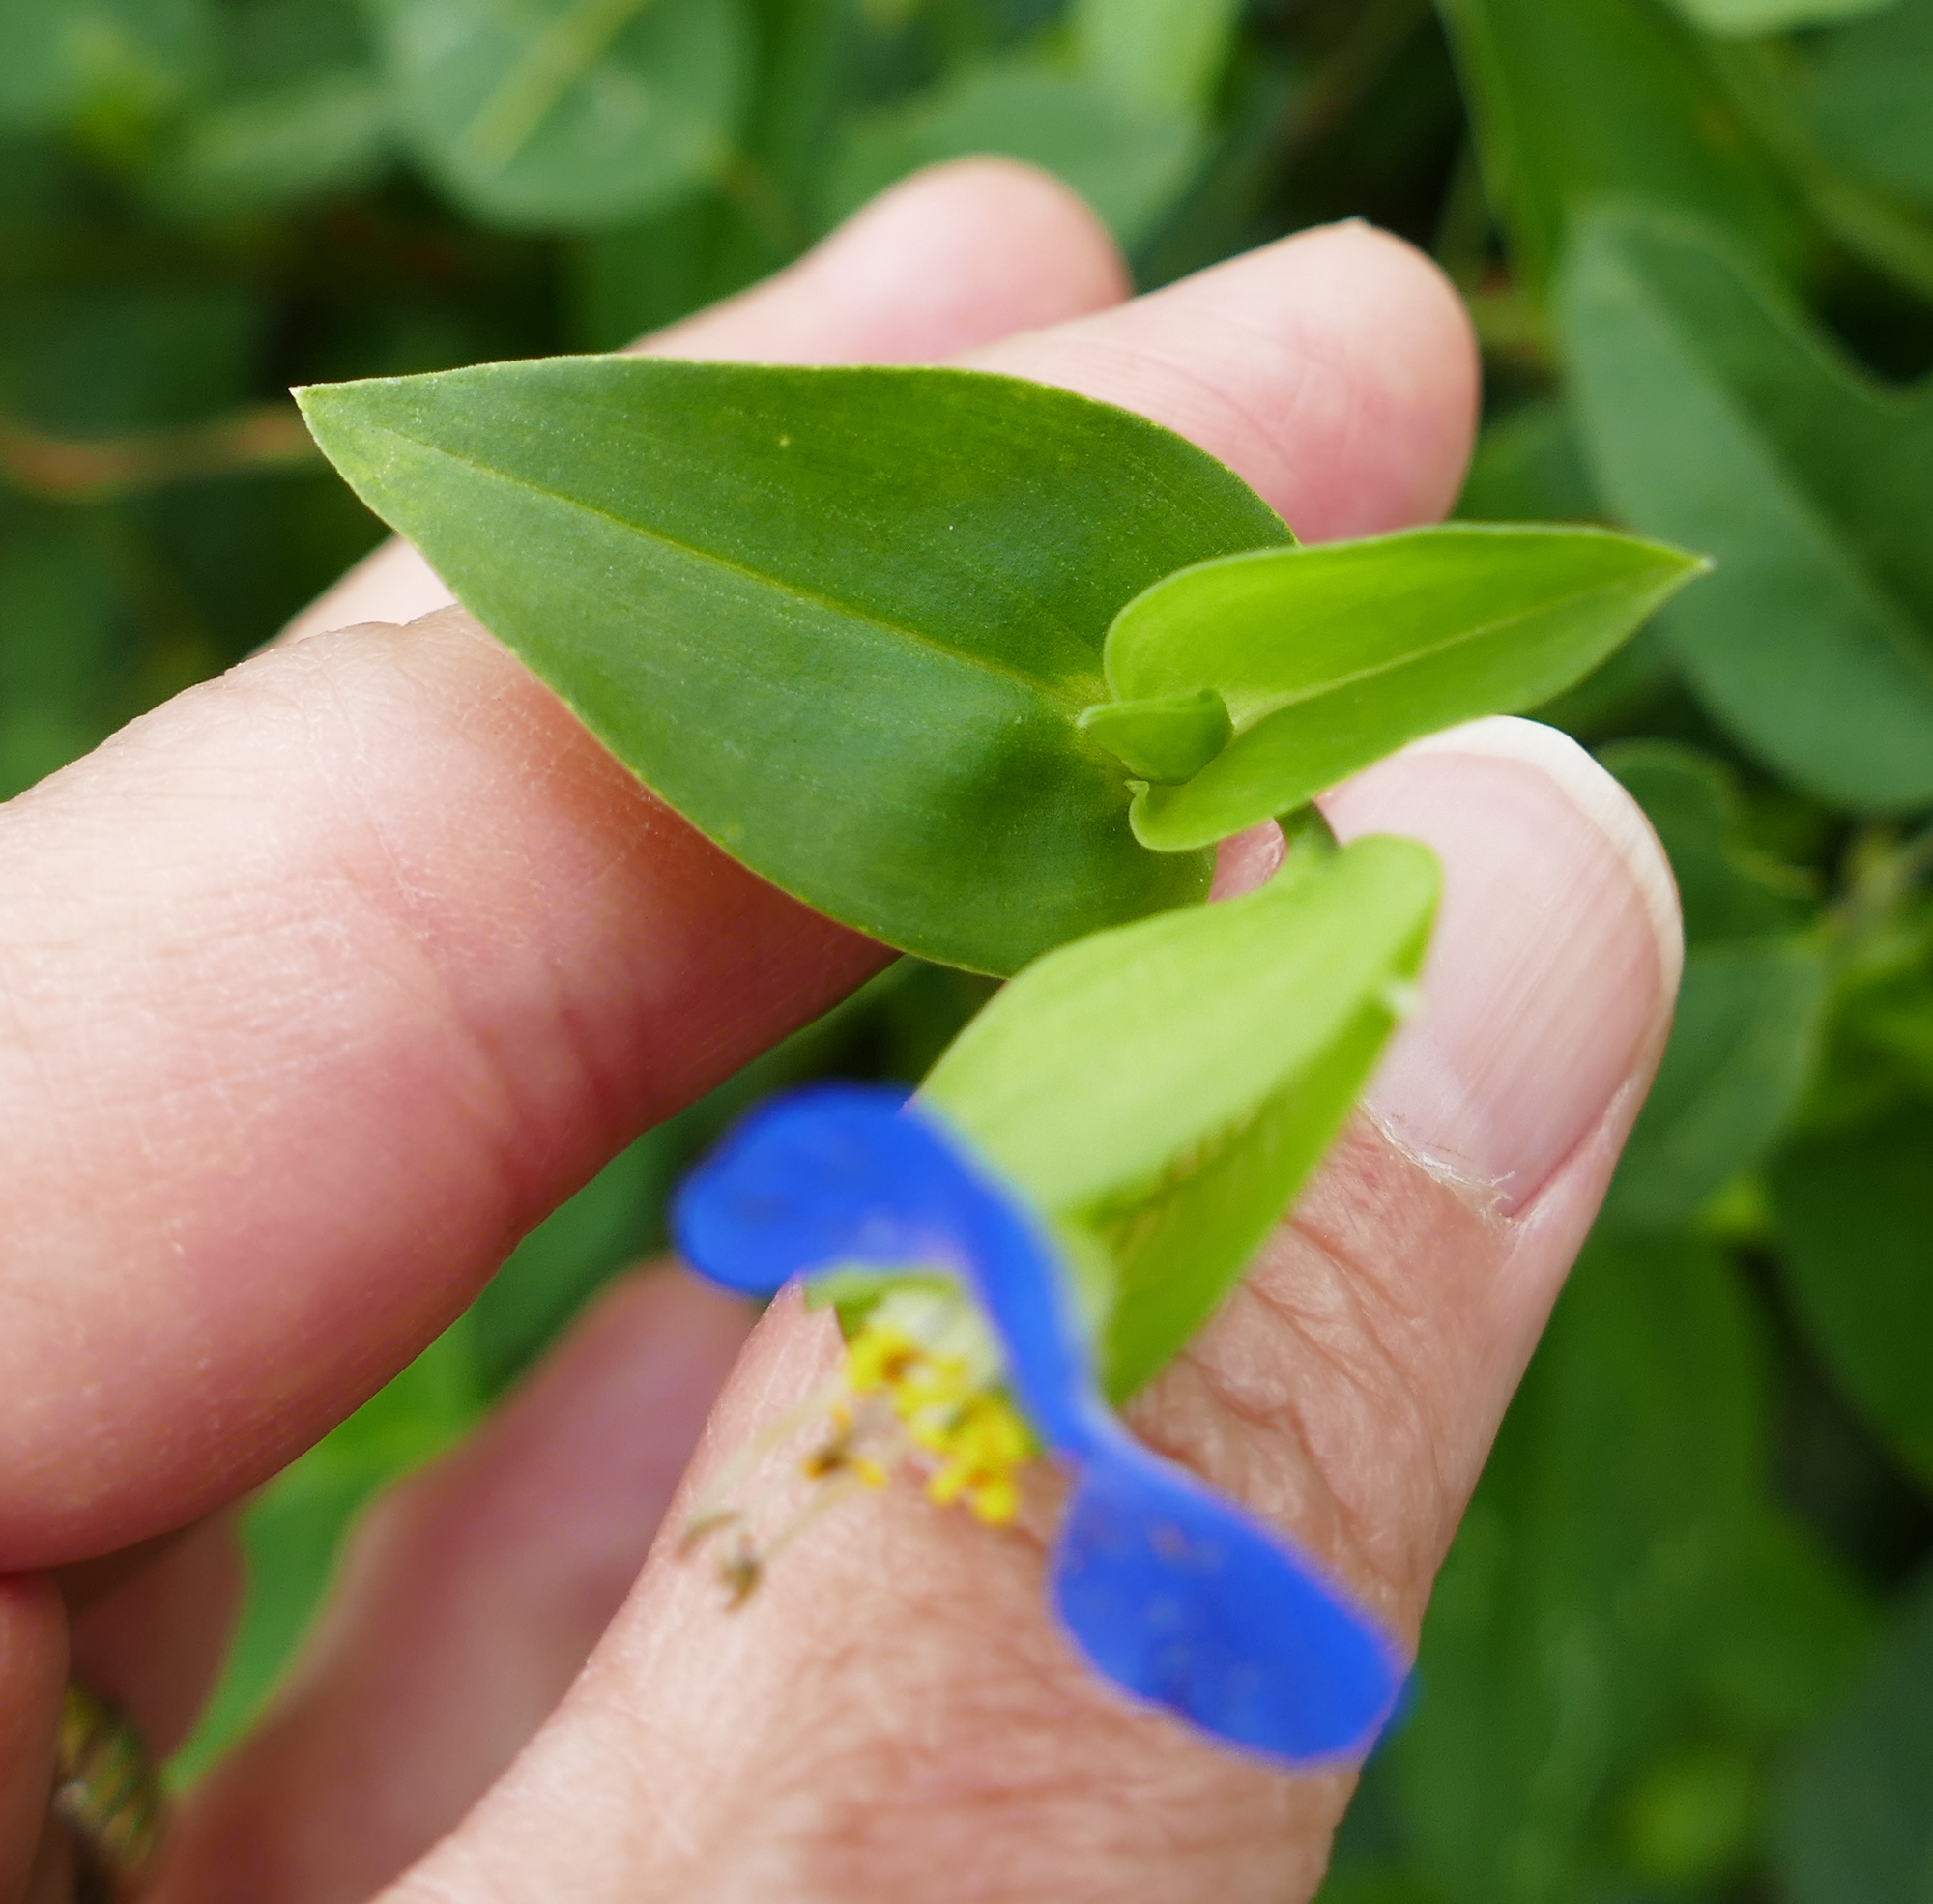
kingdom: Plantae
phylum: Tracheophyta
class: Liliopsida
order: Commelinales
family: Commelinaceae
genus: Commelina
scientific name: Commelina communis
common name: Asiatic dayflower
